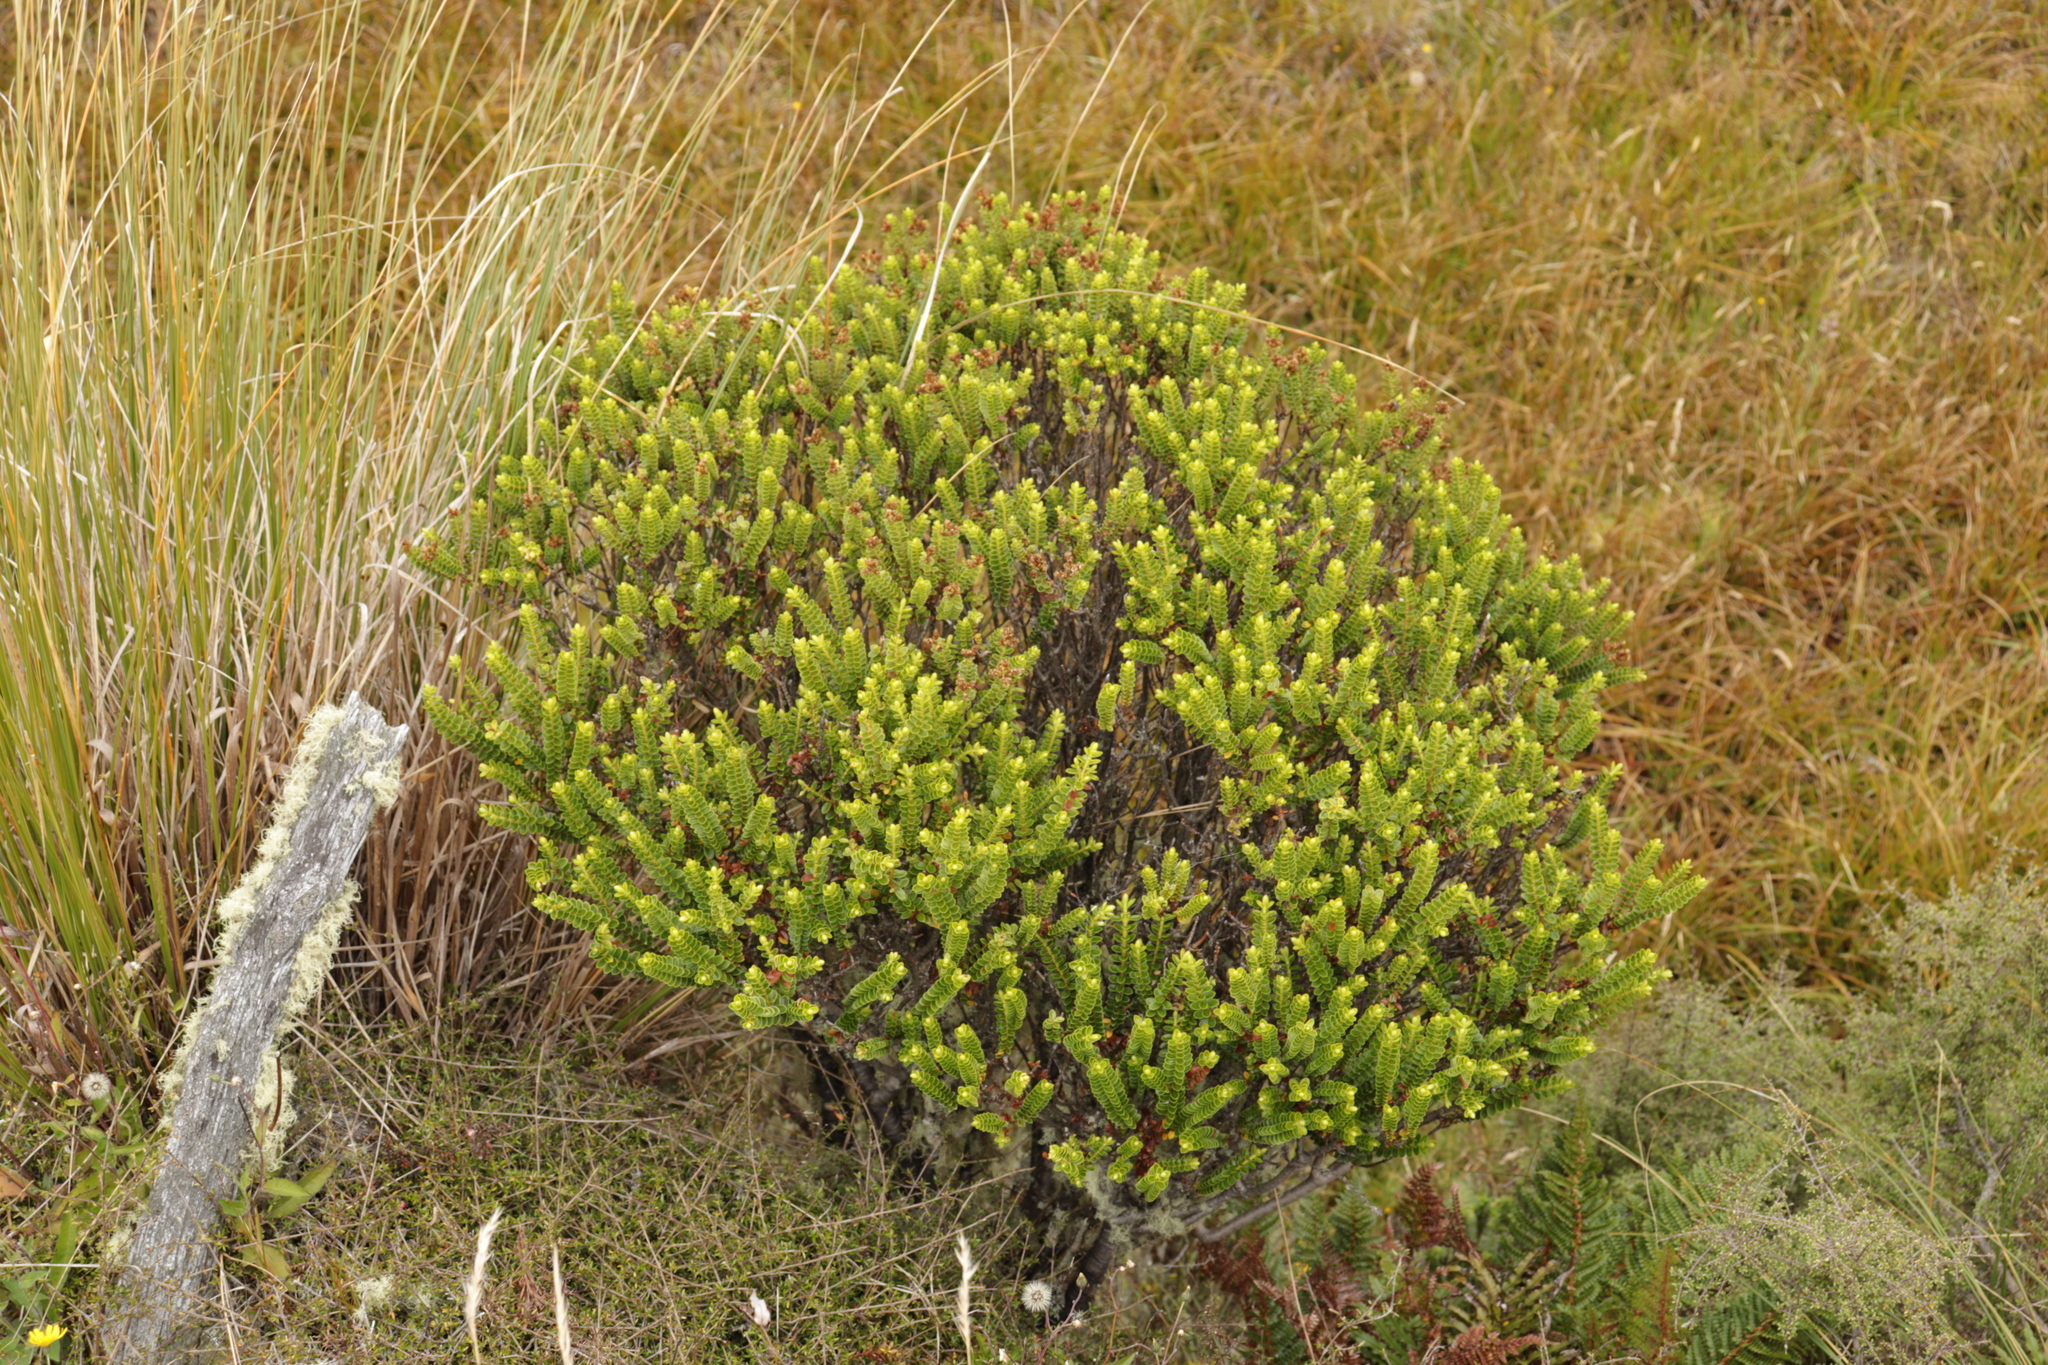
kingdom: Plantae
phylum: Tracheophyta
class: Magnoliopsida
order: Lamiales
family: Plantaginaceae
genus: Veronica
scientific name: Veronica odora
